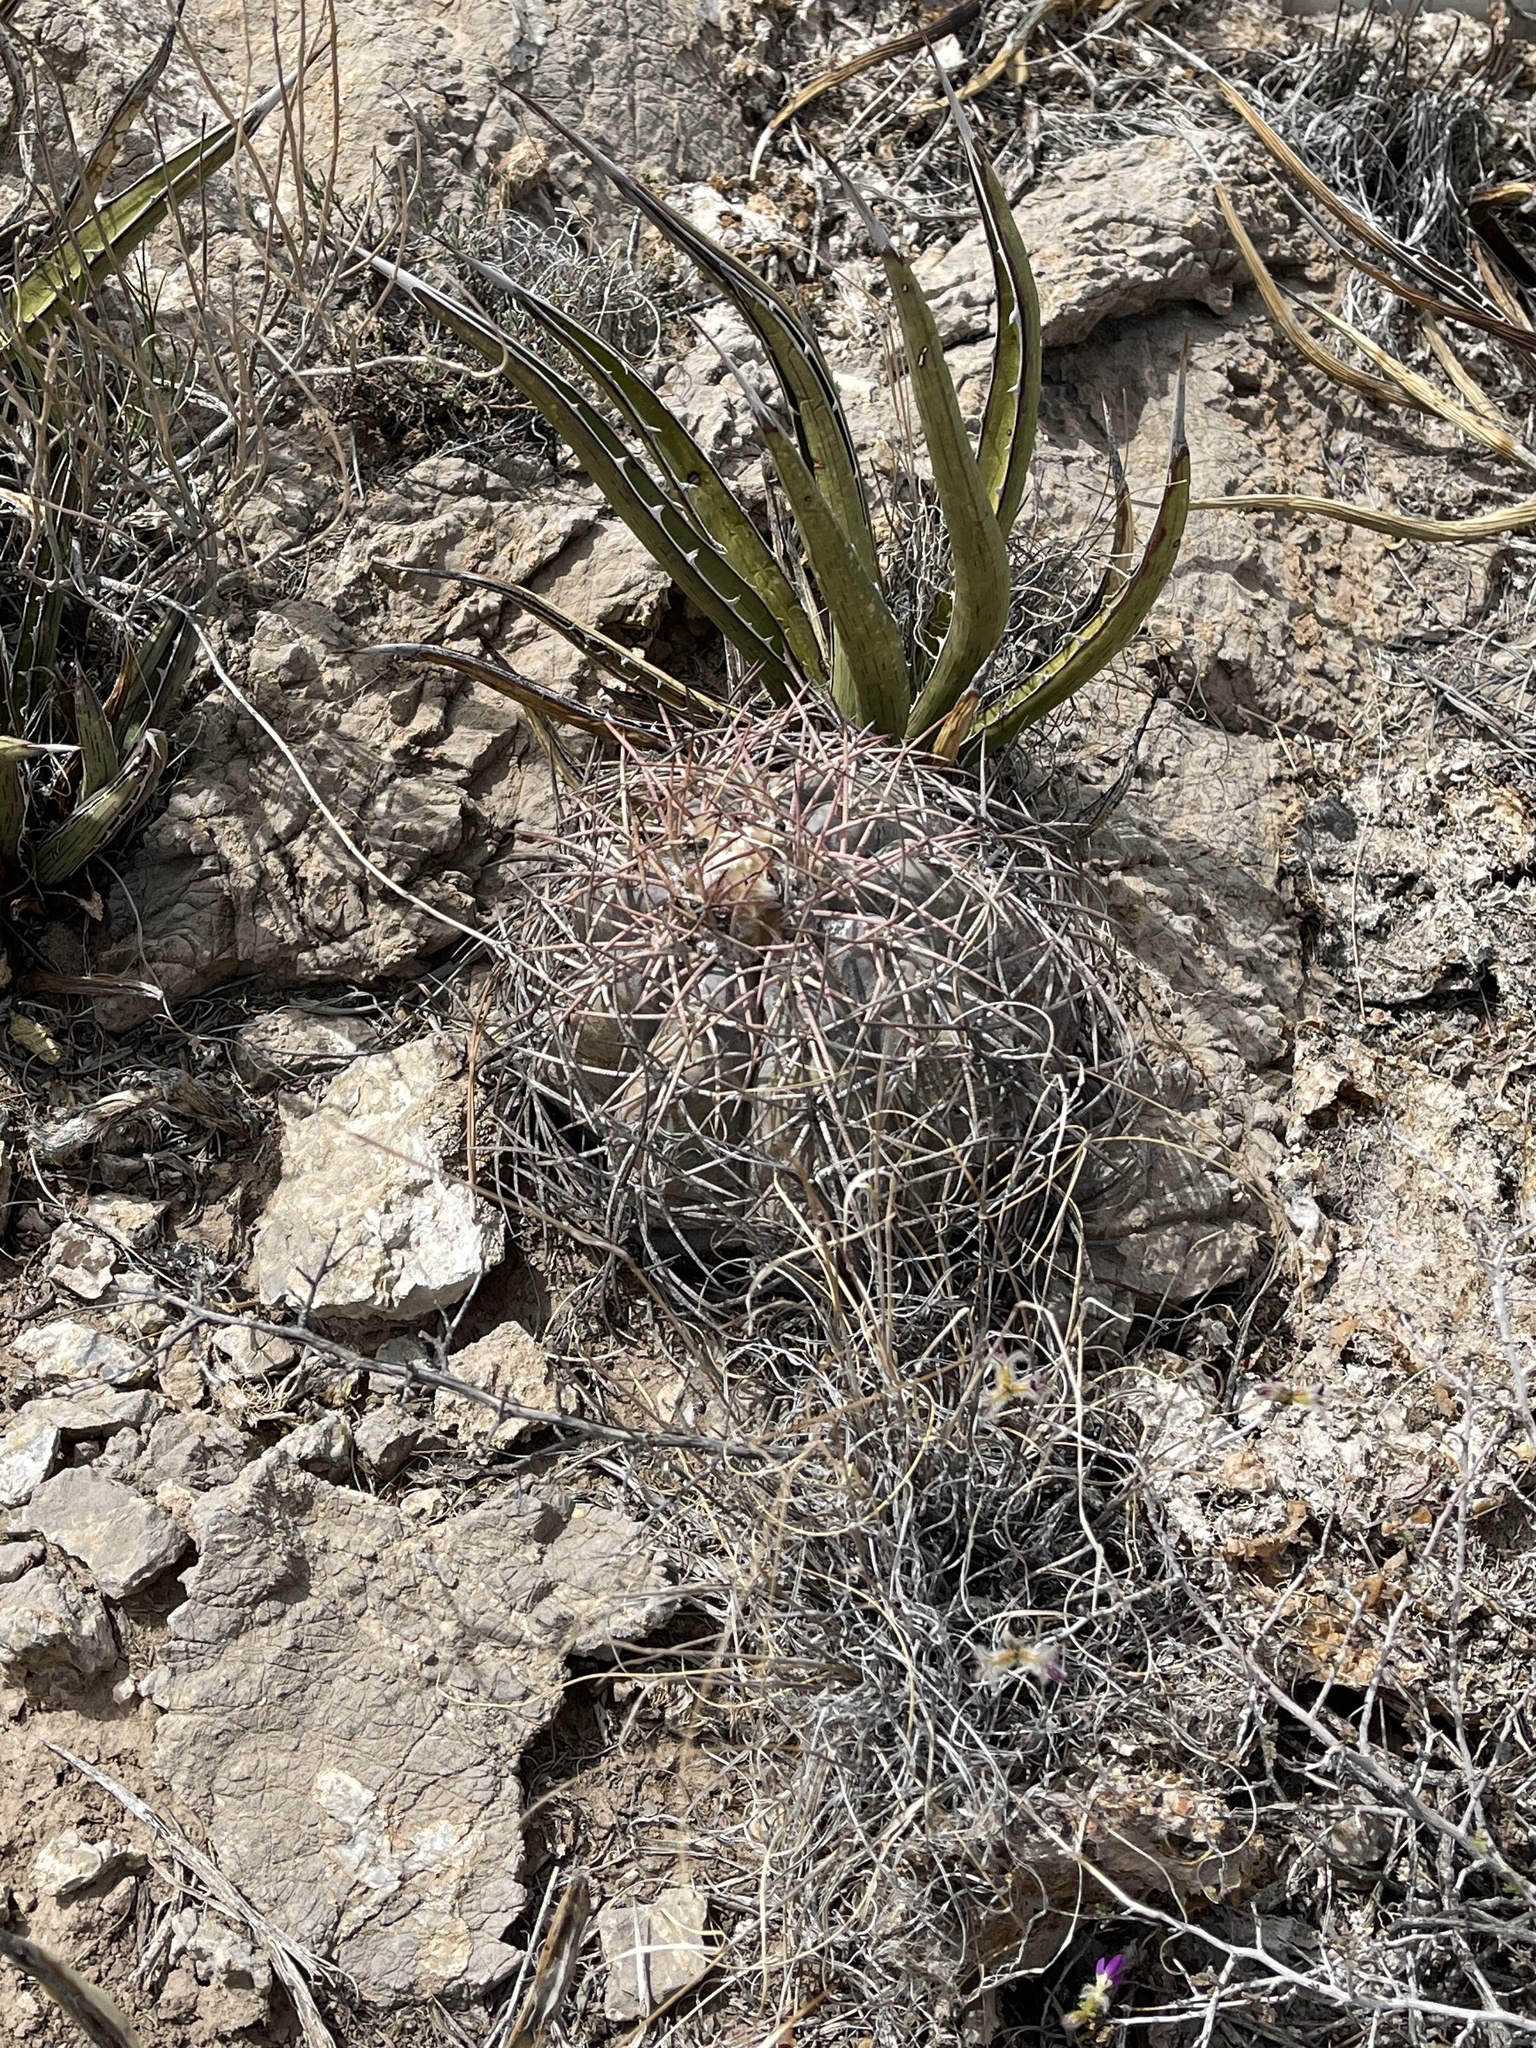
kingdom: Plantae
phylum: Tracheophyta
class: Magnoliopsida
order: Caryophyllales
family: Cactaceae
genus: Echinocactus
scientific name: Echinocactus horizonthalonius
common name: Devilshead
